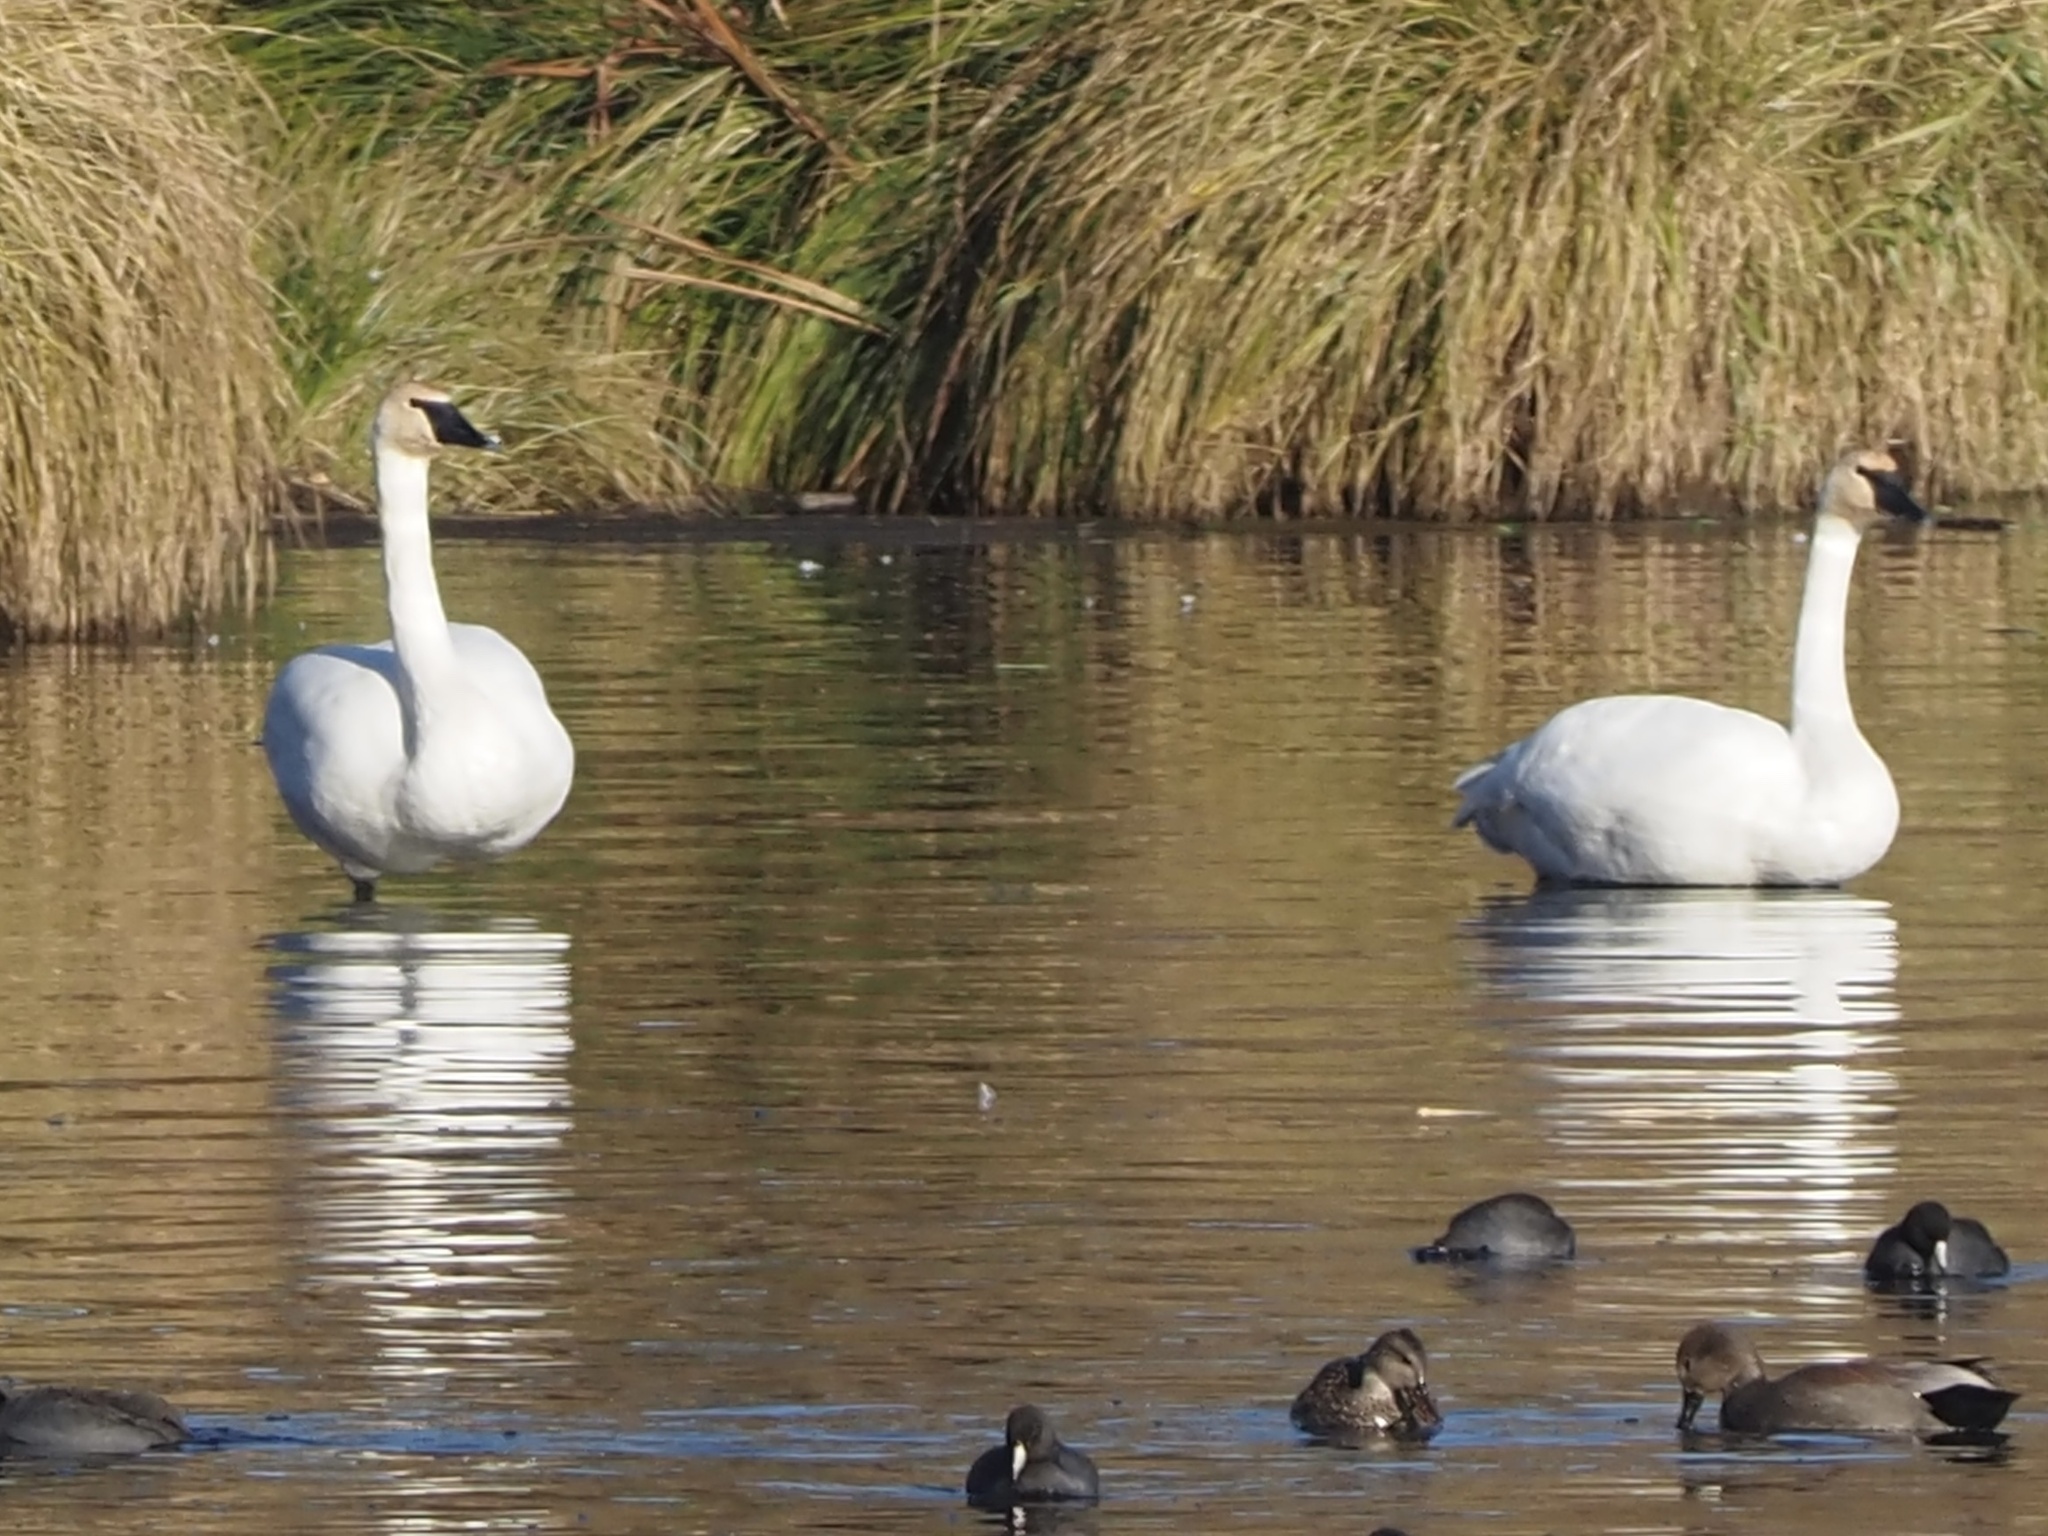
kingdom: Animalia
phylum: Chordata
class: Aves
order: Anseriformes
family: Anatidae
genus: Cygnus
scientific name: Cygnus buccinator
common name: Trumpeter swan
